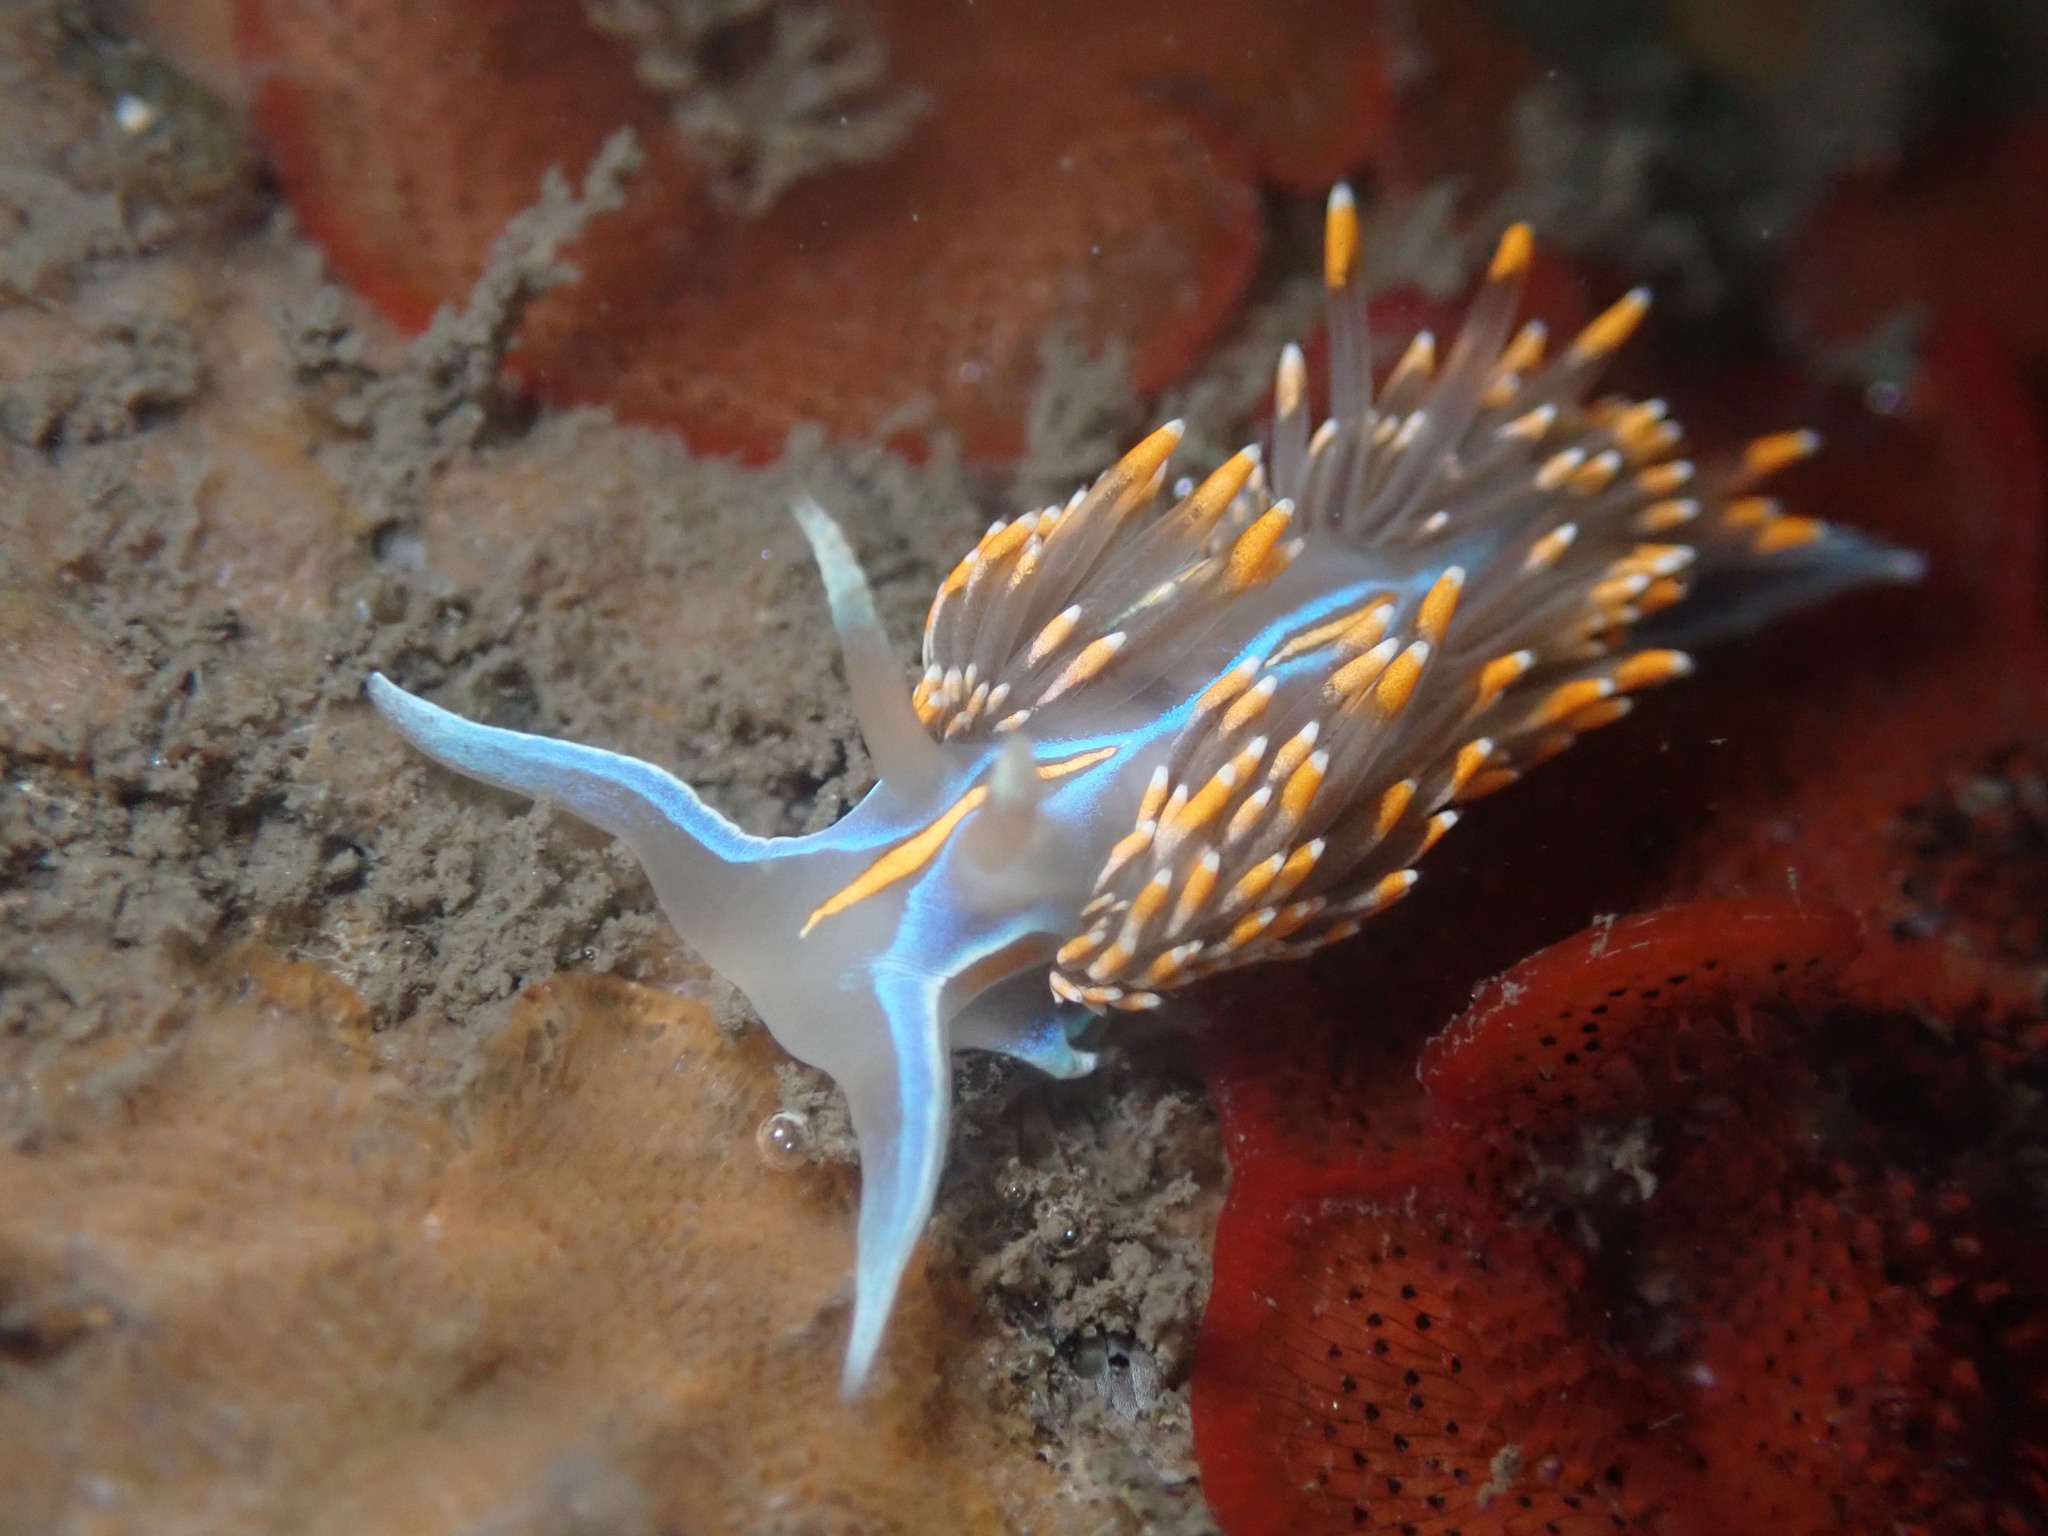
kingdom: Animalia
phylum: Mollusca
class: Gastropoda
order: Nudibranchia
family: Myrrhinidae
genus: Hermissenda
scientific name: Hermissenda opalescens
